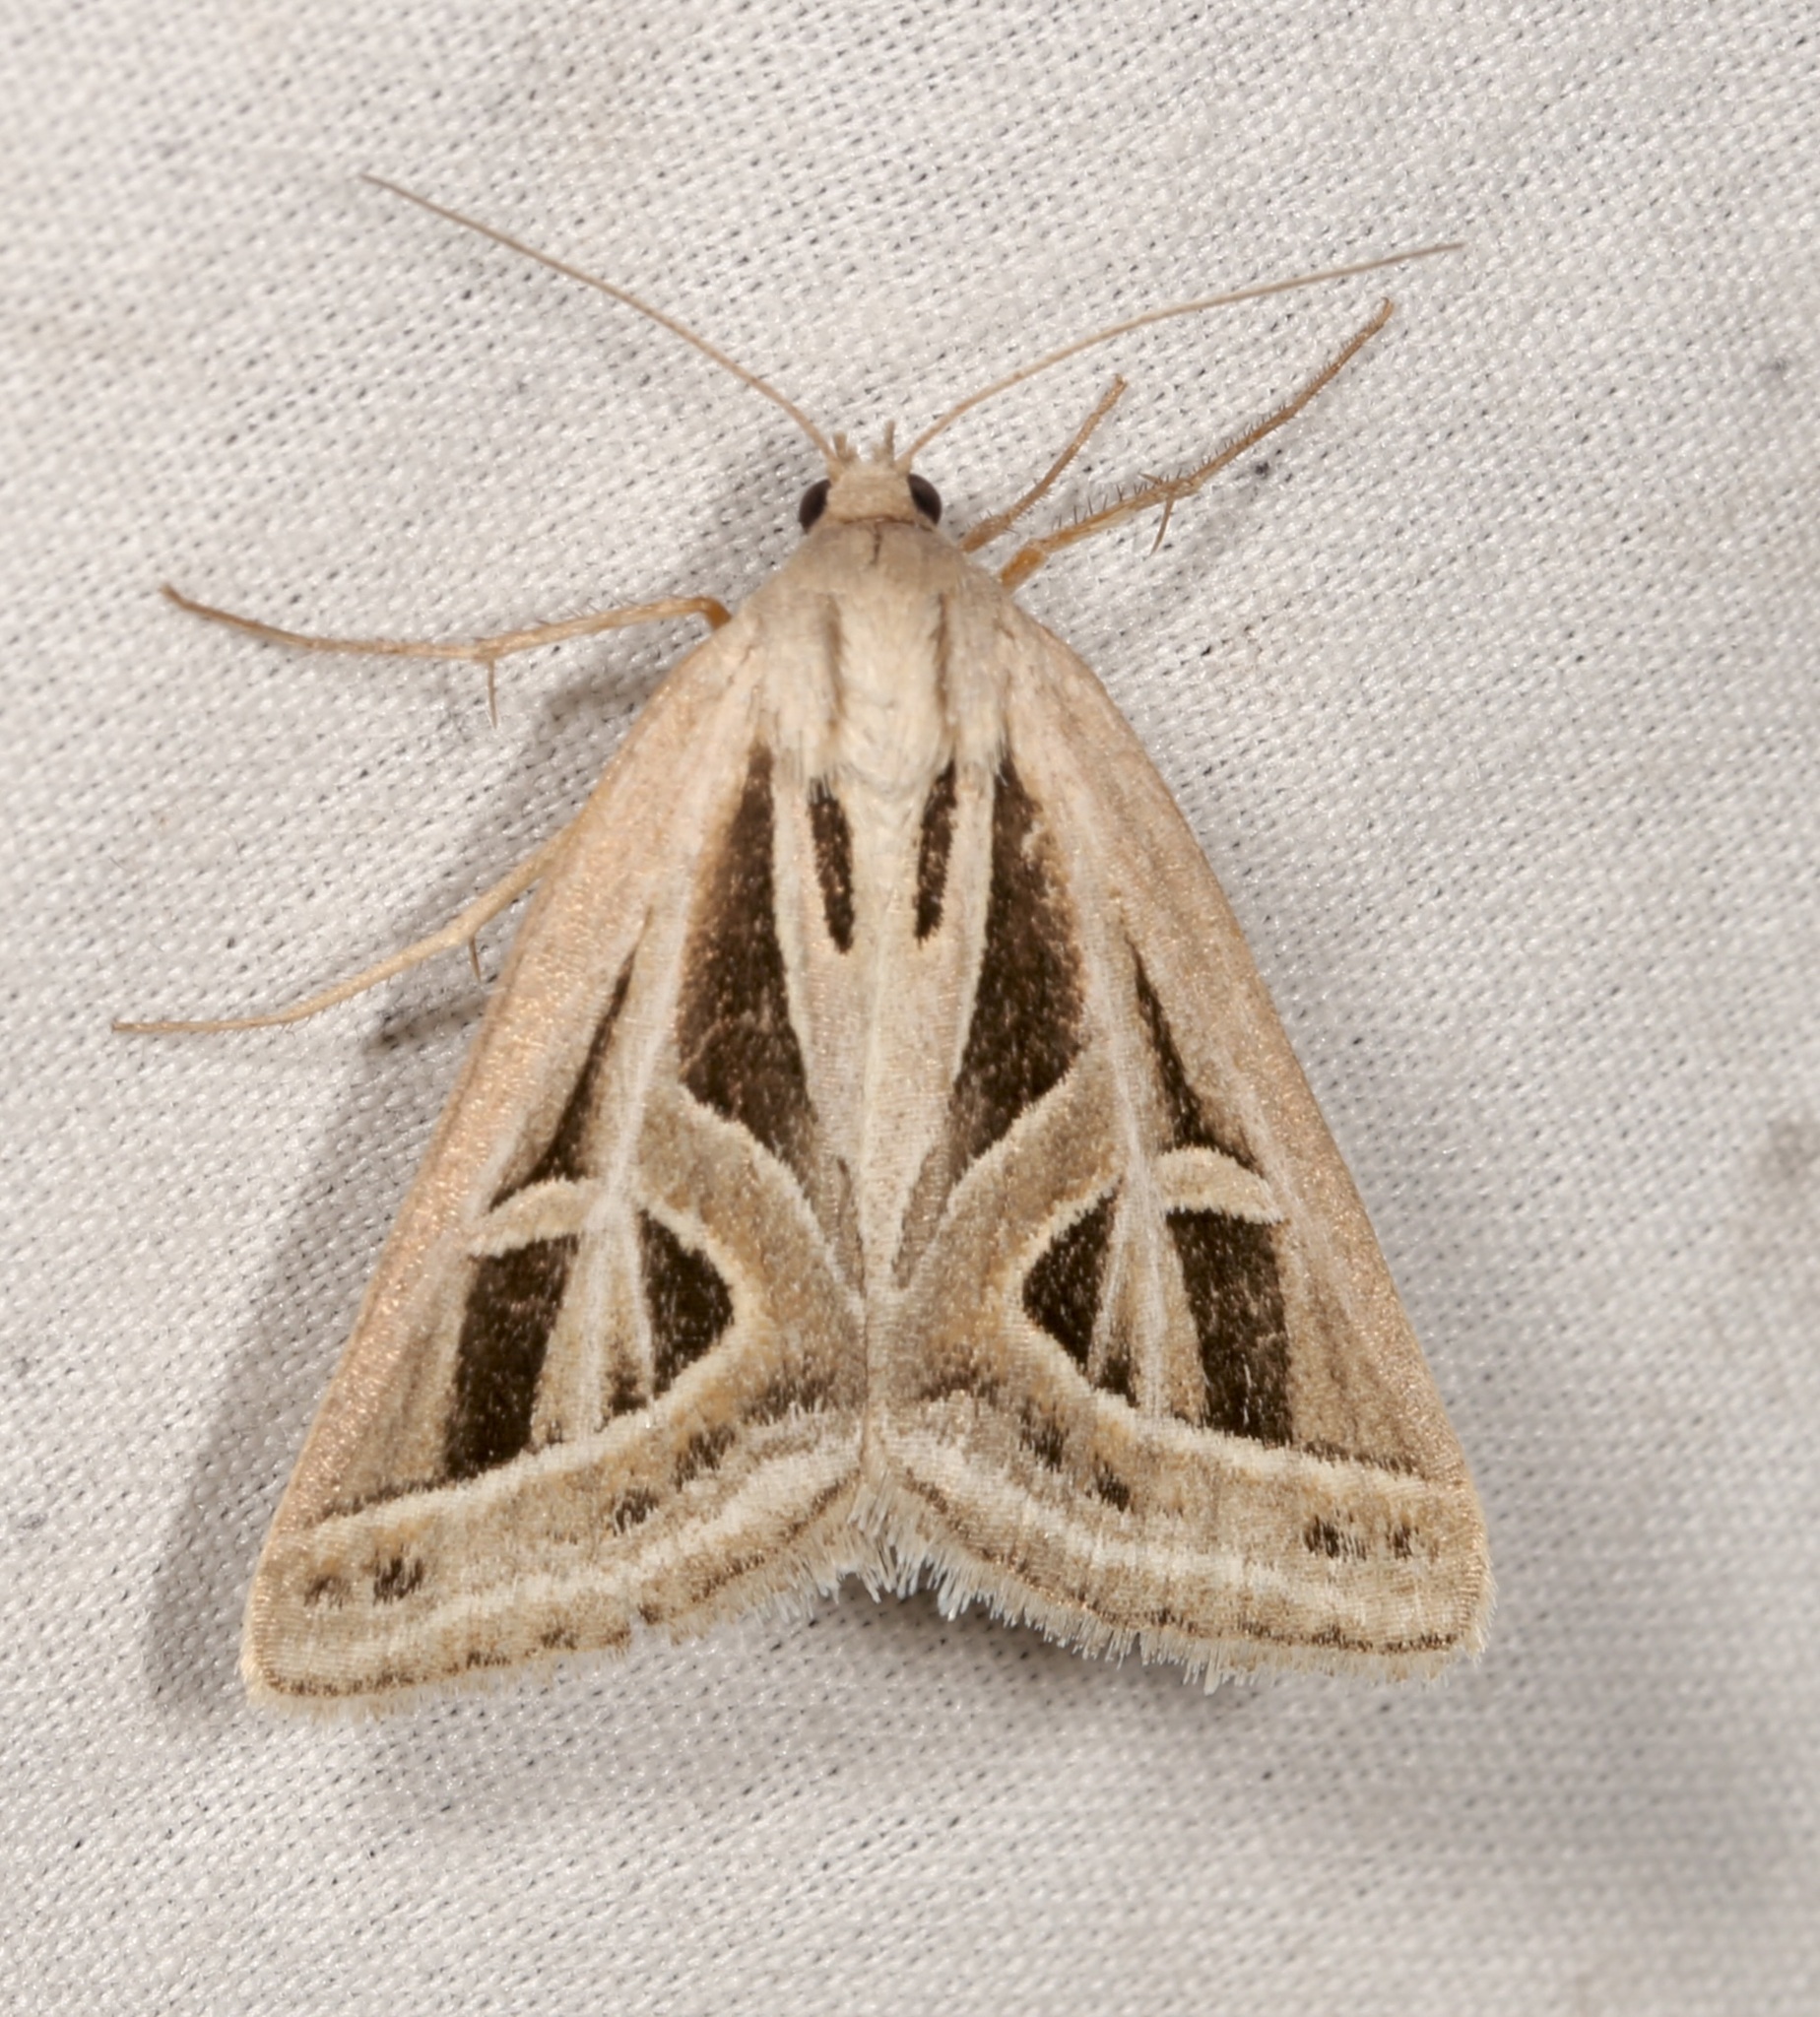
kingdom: Animalia
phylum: Arthropoda
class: Insecta
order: Lepidoptera
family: Erebidae
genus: Callistege
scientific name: Callistege diagonalis
